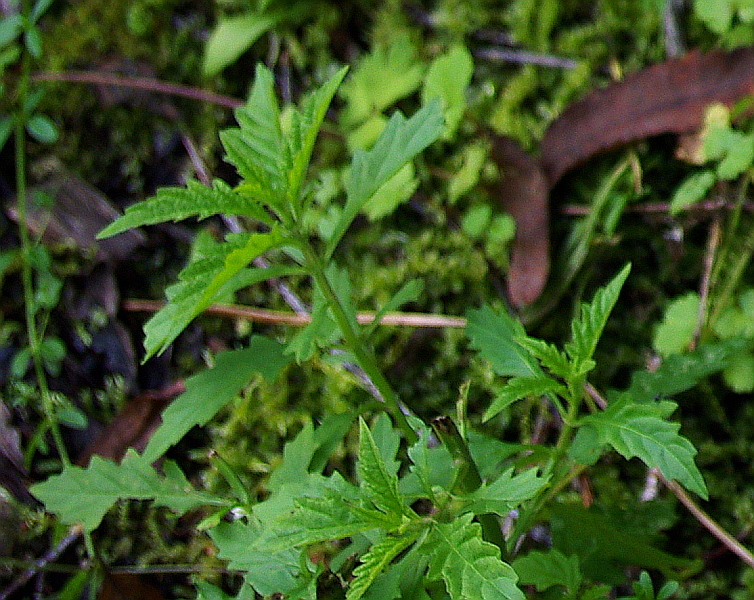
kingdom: Plantae
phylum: Tracheophyta
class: Magnoliopsida
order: Lamiales
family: Lamiaceae
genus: Lycopus
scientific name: Lycopus europaeus
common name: European bugleweed
